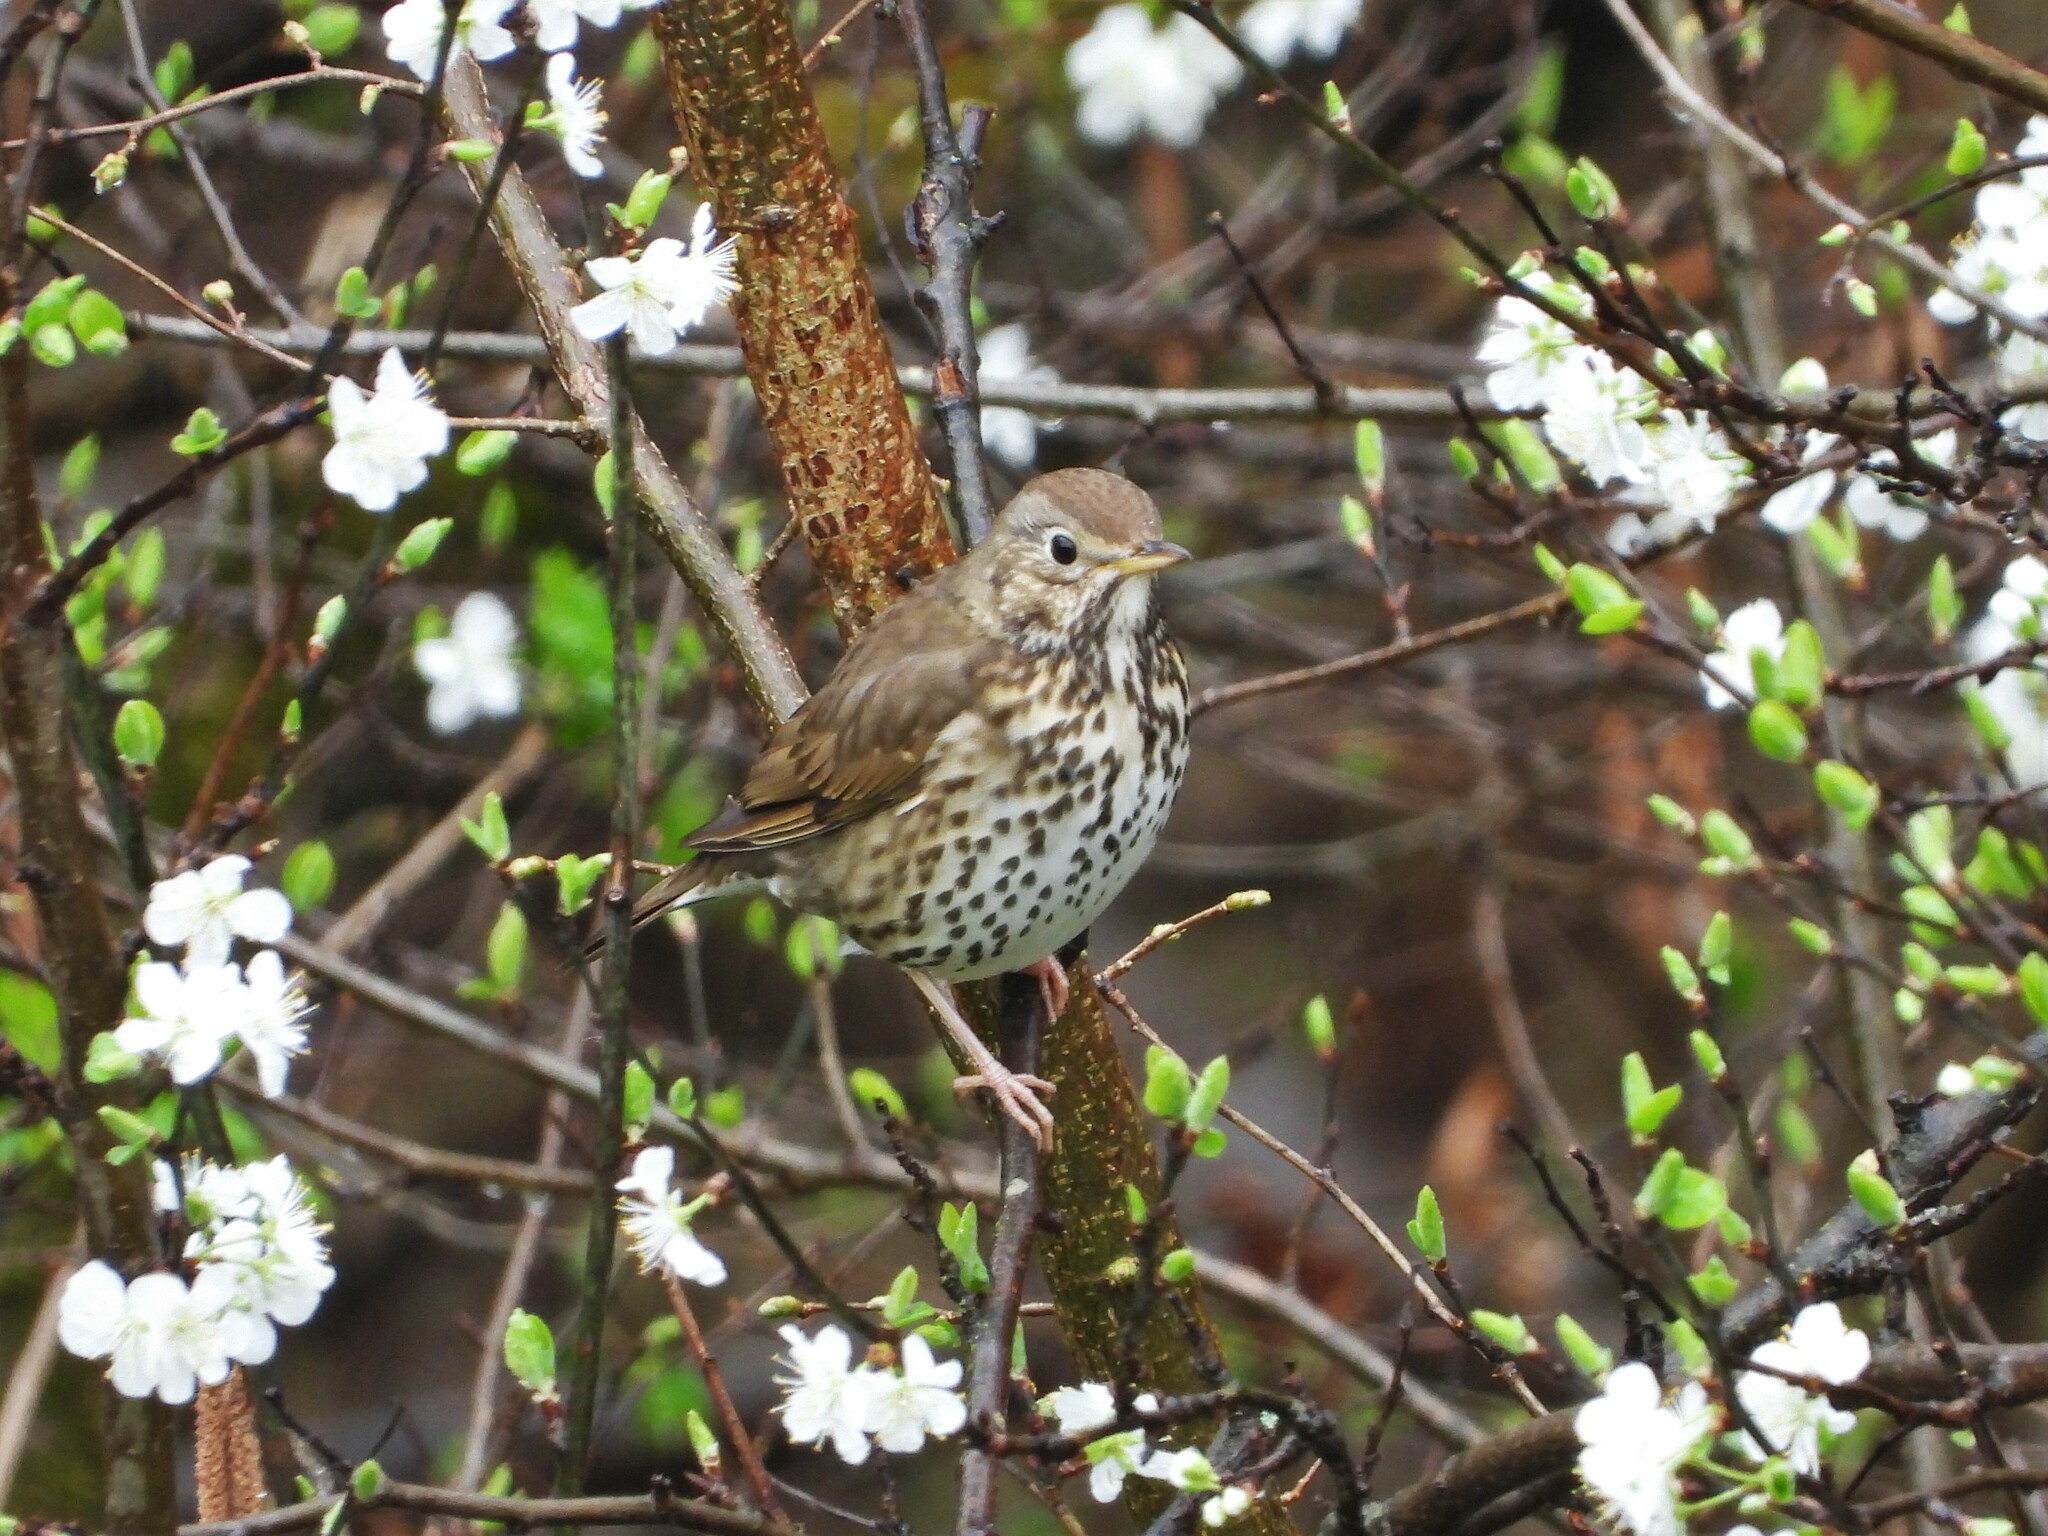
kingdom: Animalia
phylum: Chordata
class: Aves
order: Passeriformes
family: Turdidae
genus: Turdus
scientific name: Turdus philomelos
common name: Song thrush
